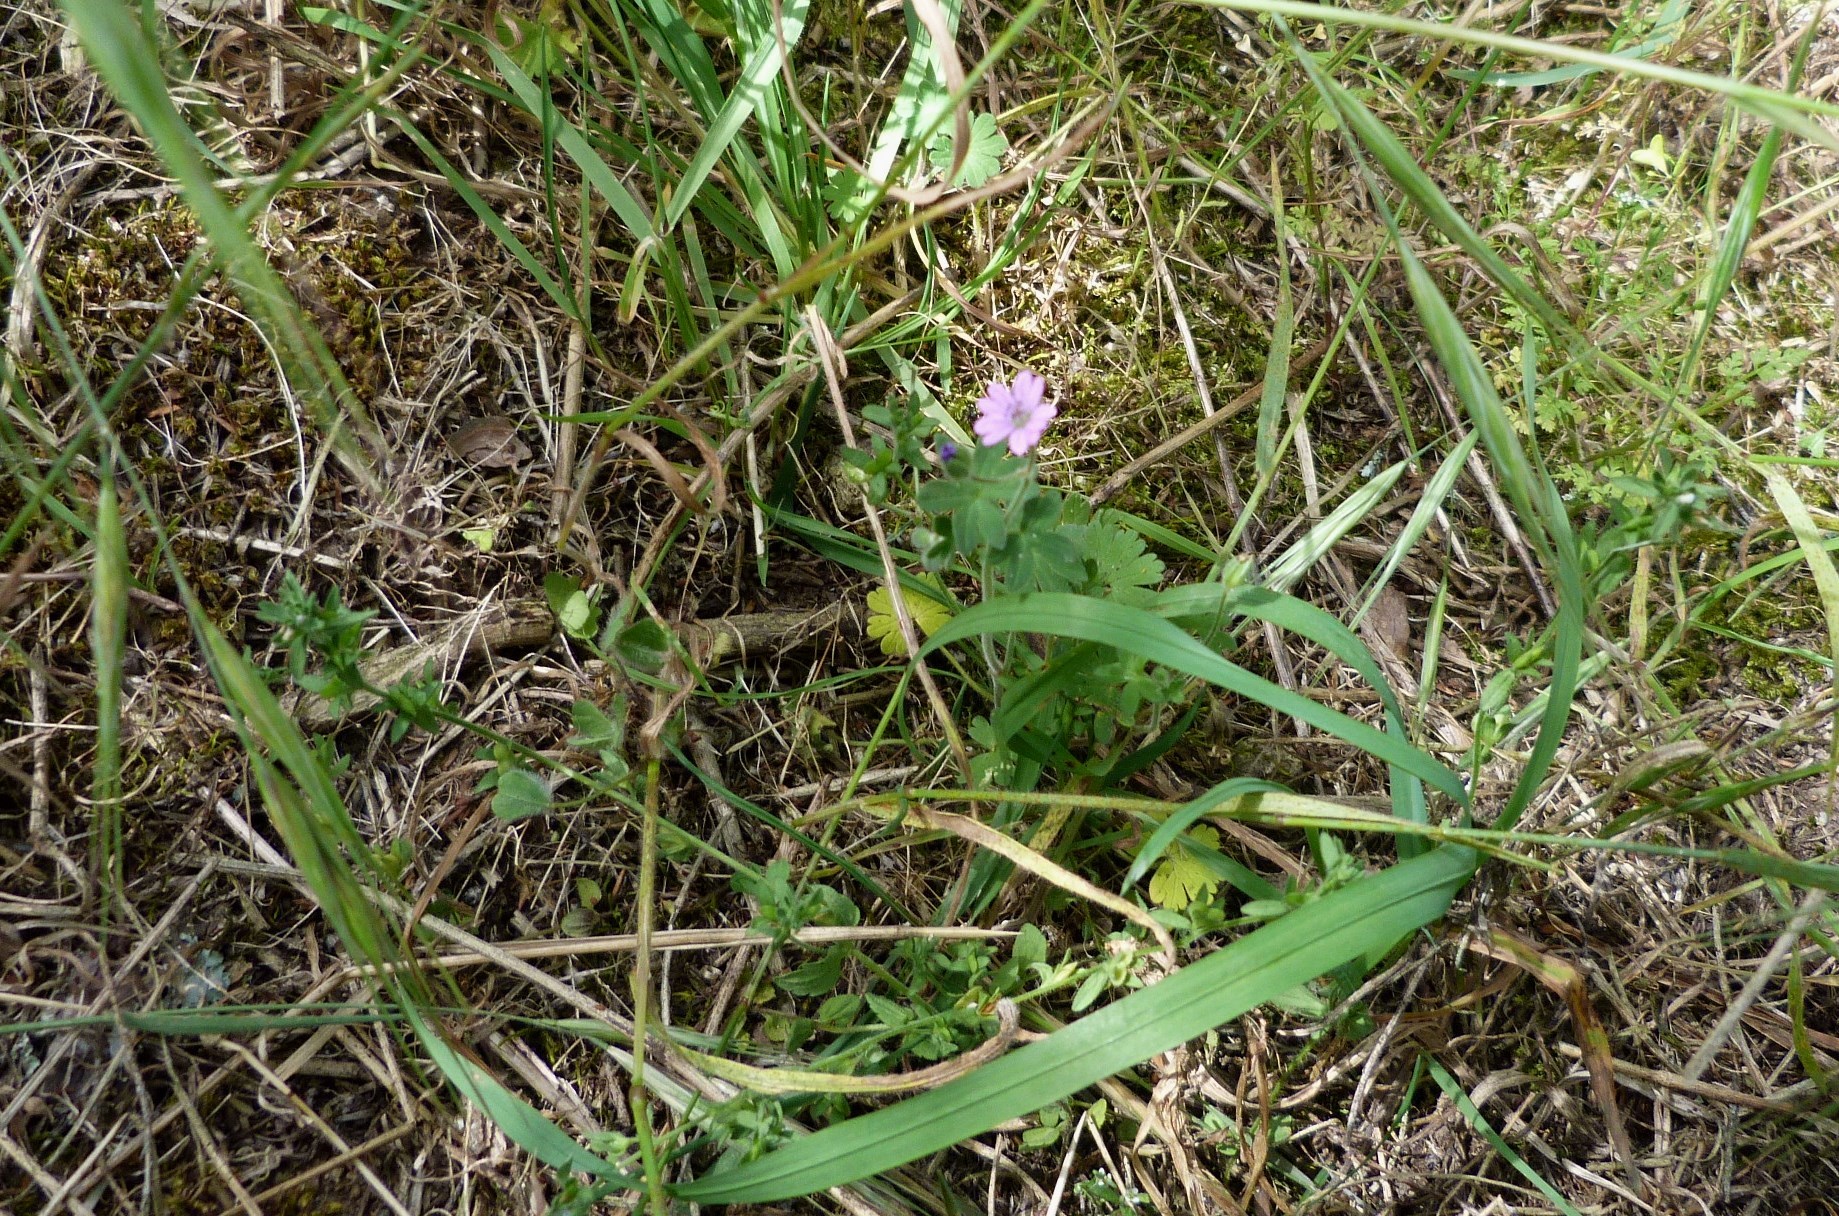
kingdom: Plantae
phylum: Tracheophyta
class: Magnoliopsida
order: Geraniales
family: Geraniaceae
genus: Geranium
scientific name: Geranium molle
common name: Dove's-foot crane's-bill
